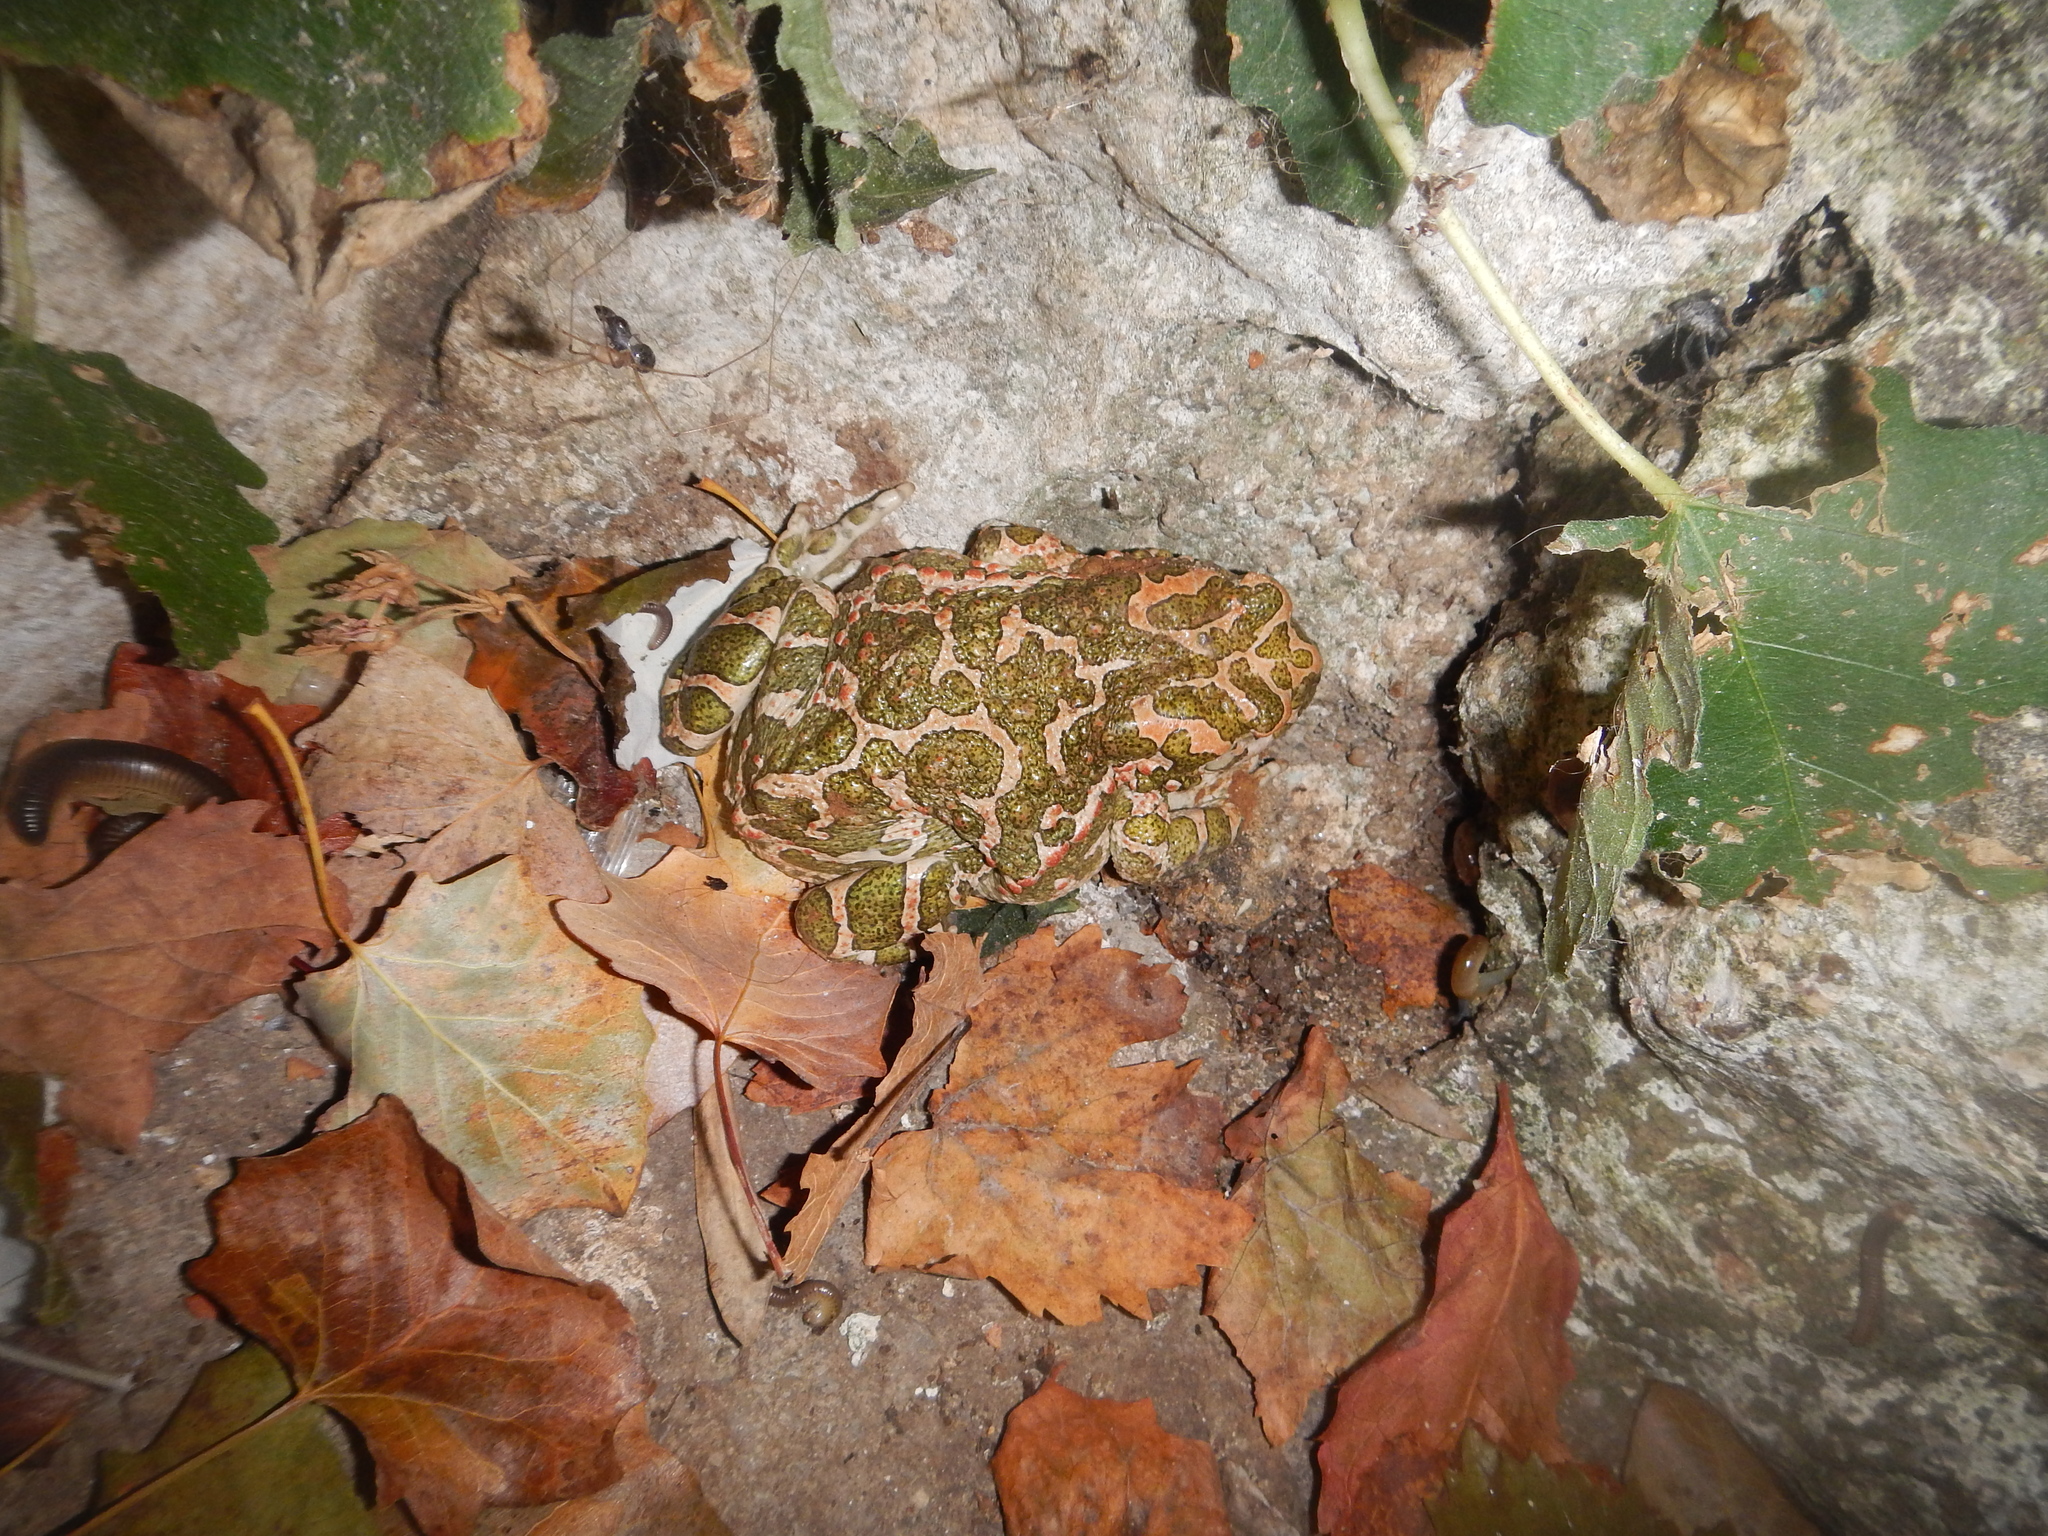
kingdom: Animalia
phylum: Chordata
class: Amphibia
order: Anura
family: Bufonidae
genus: Bufotes
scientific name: Bufotes viridis
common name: European green toad
